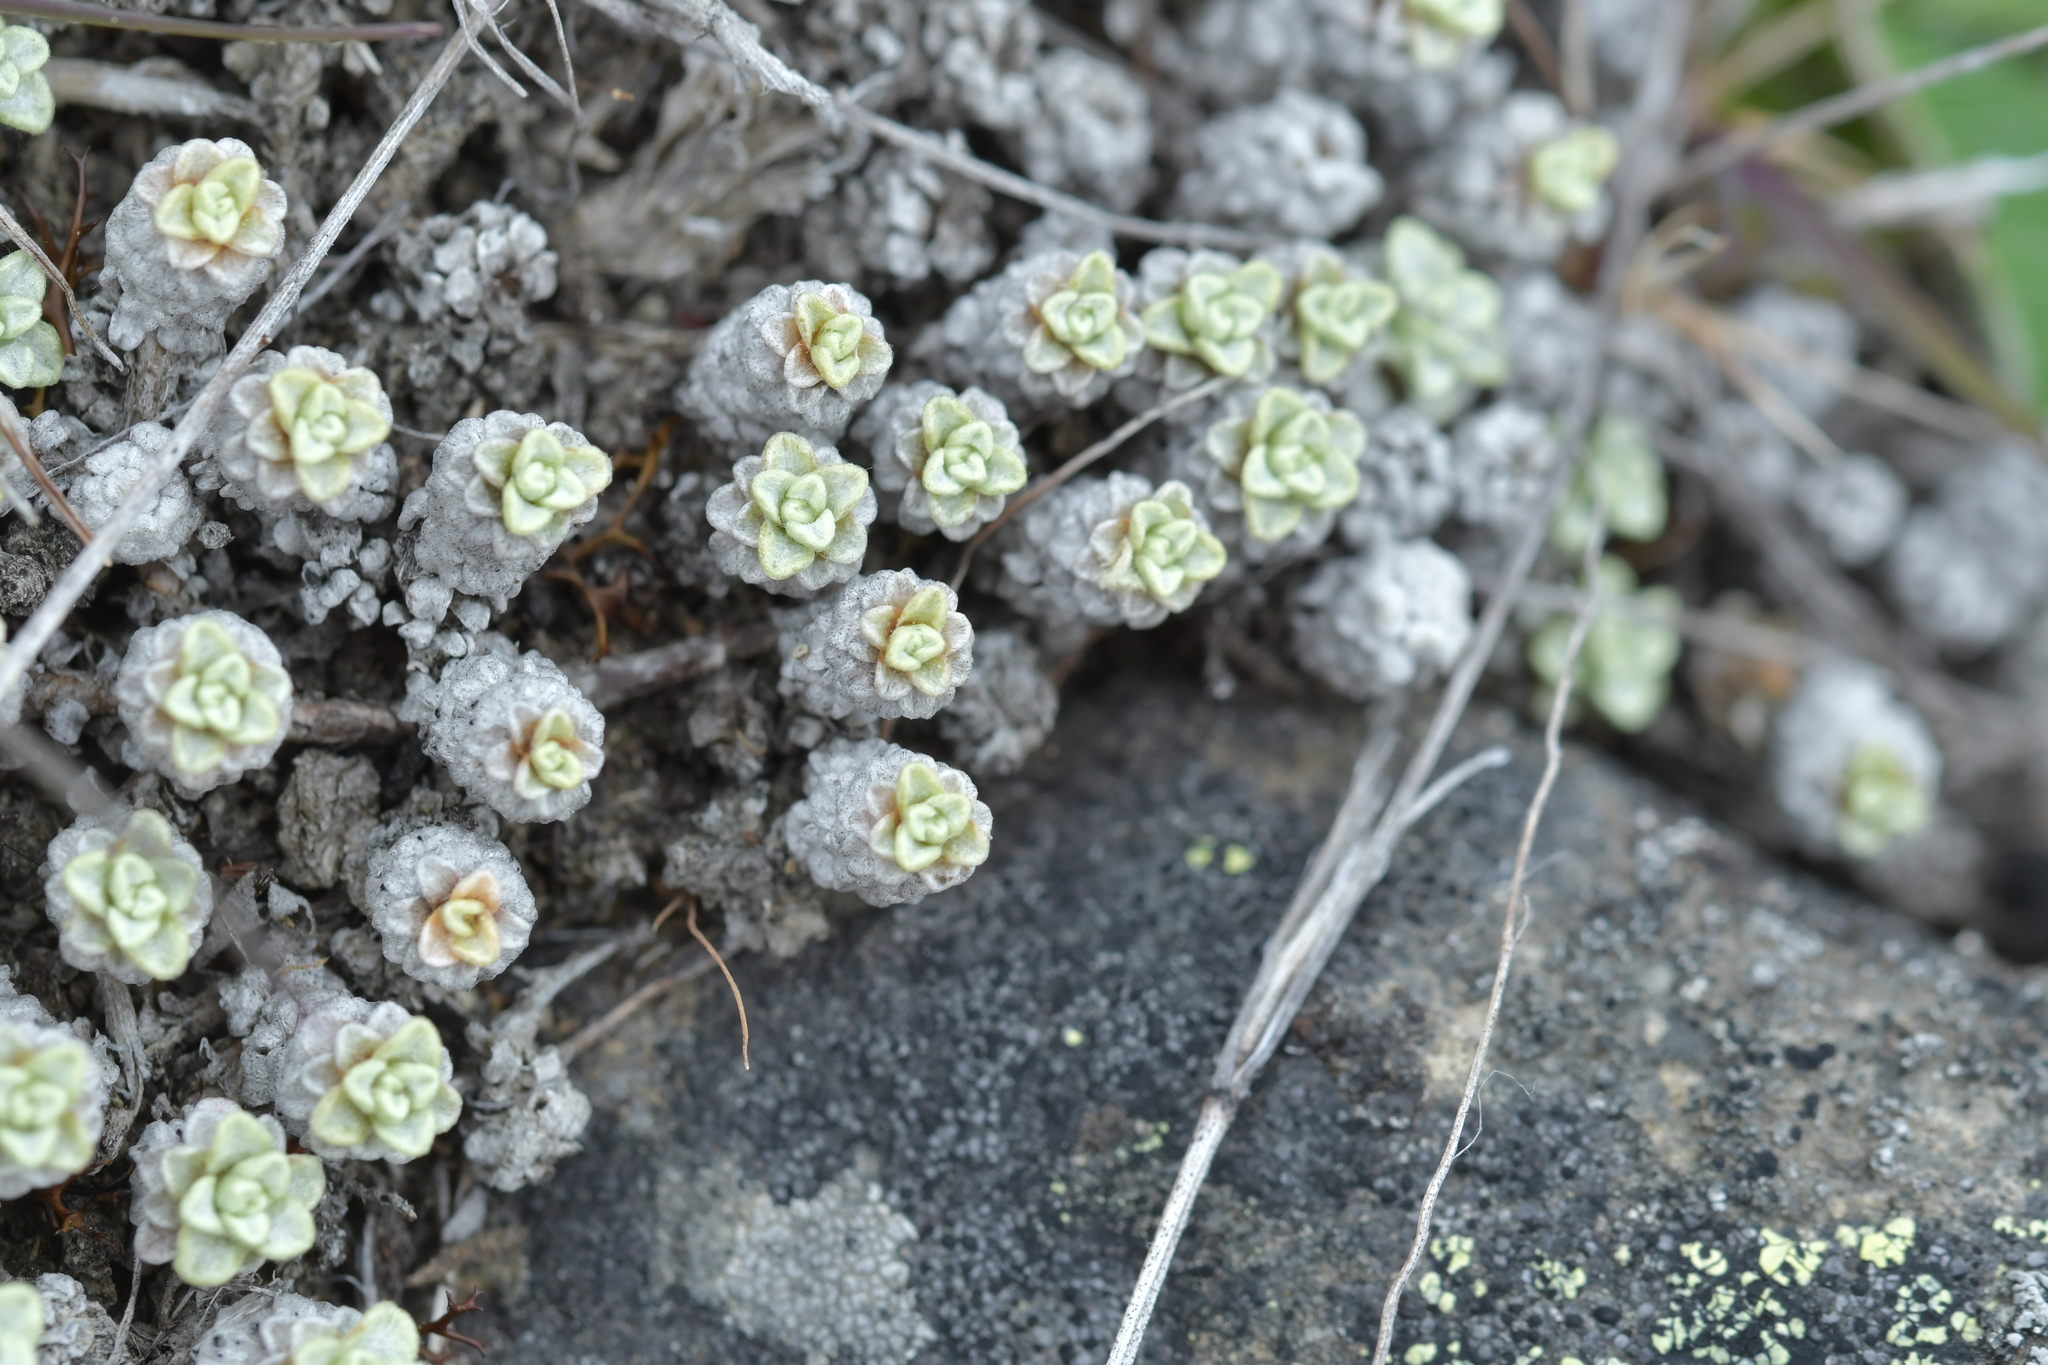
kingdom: Plantae
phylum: Tracheophyta
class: Magnoliopsida
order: Asterales
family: Asteraceae
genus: Raoulia
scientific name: Raoulia parkii
